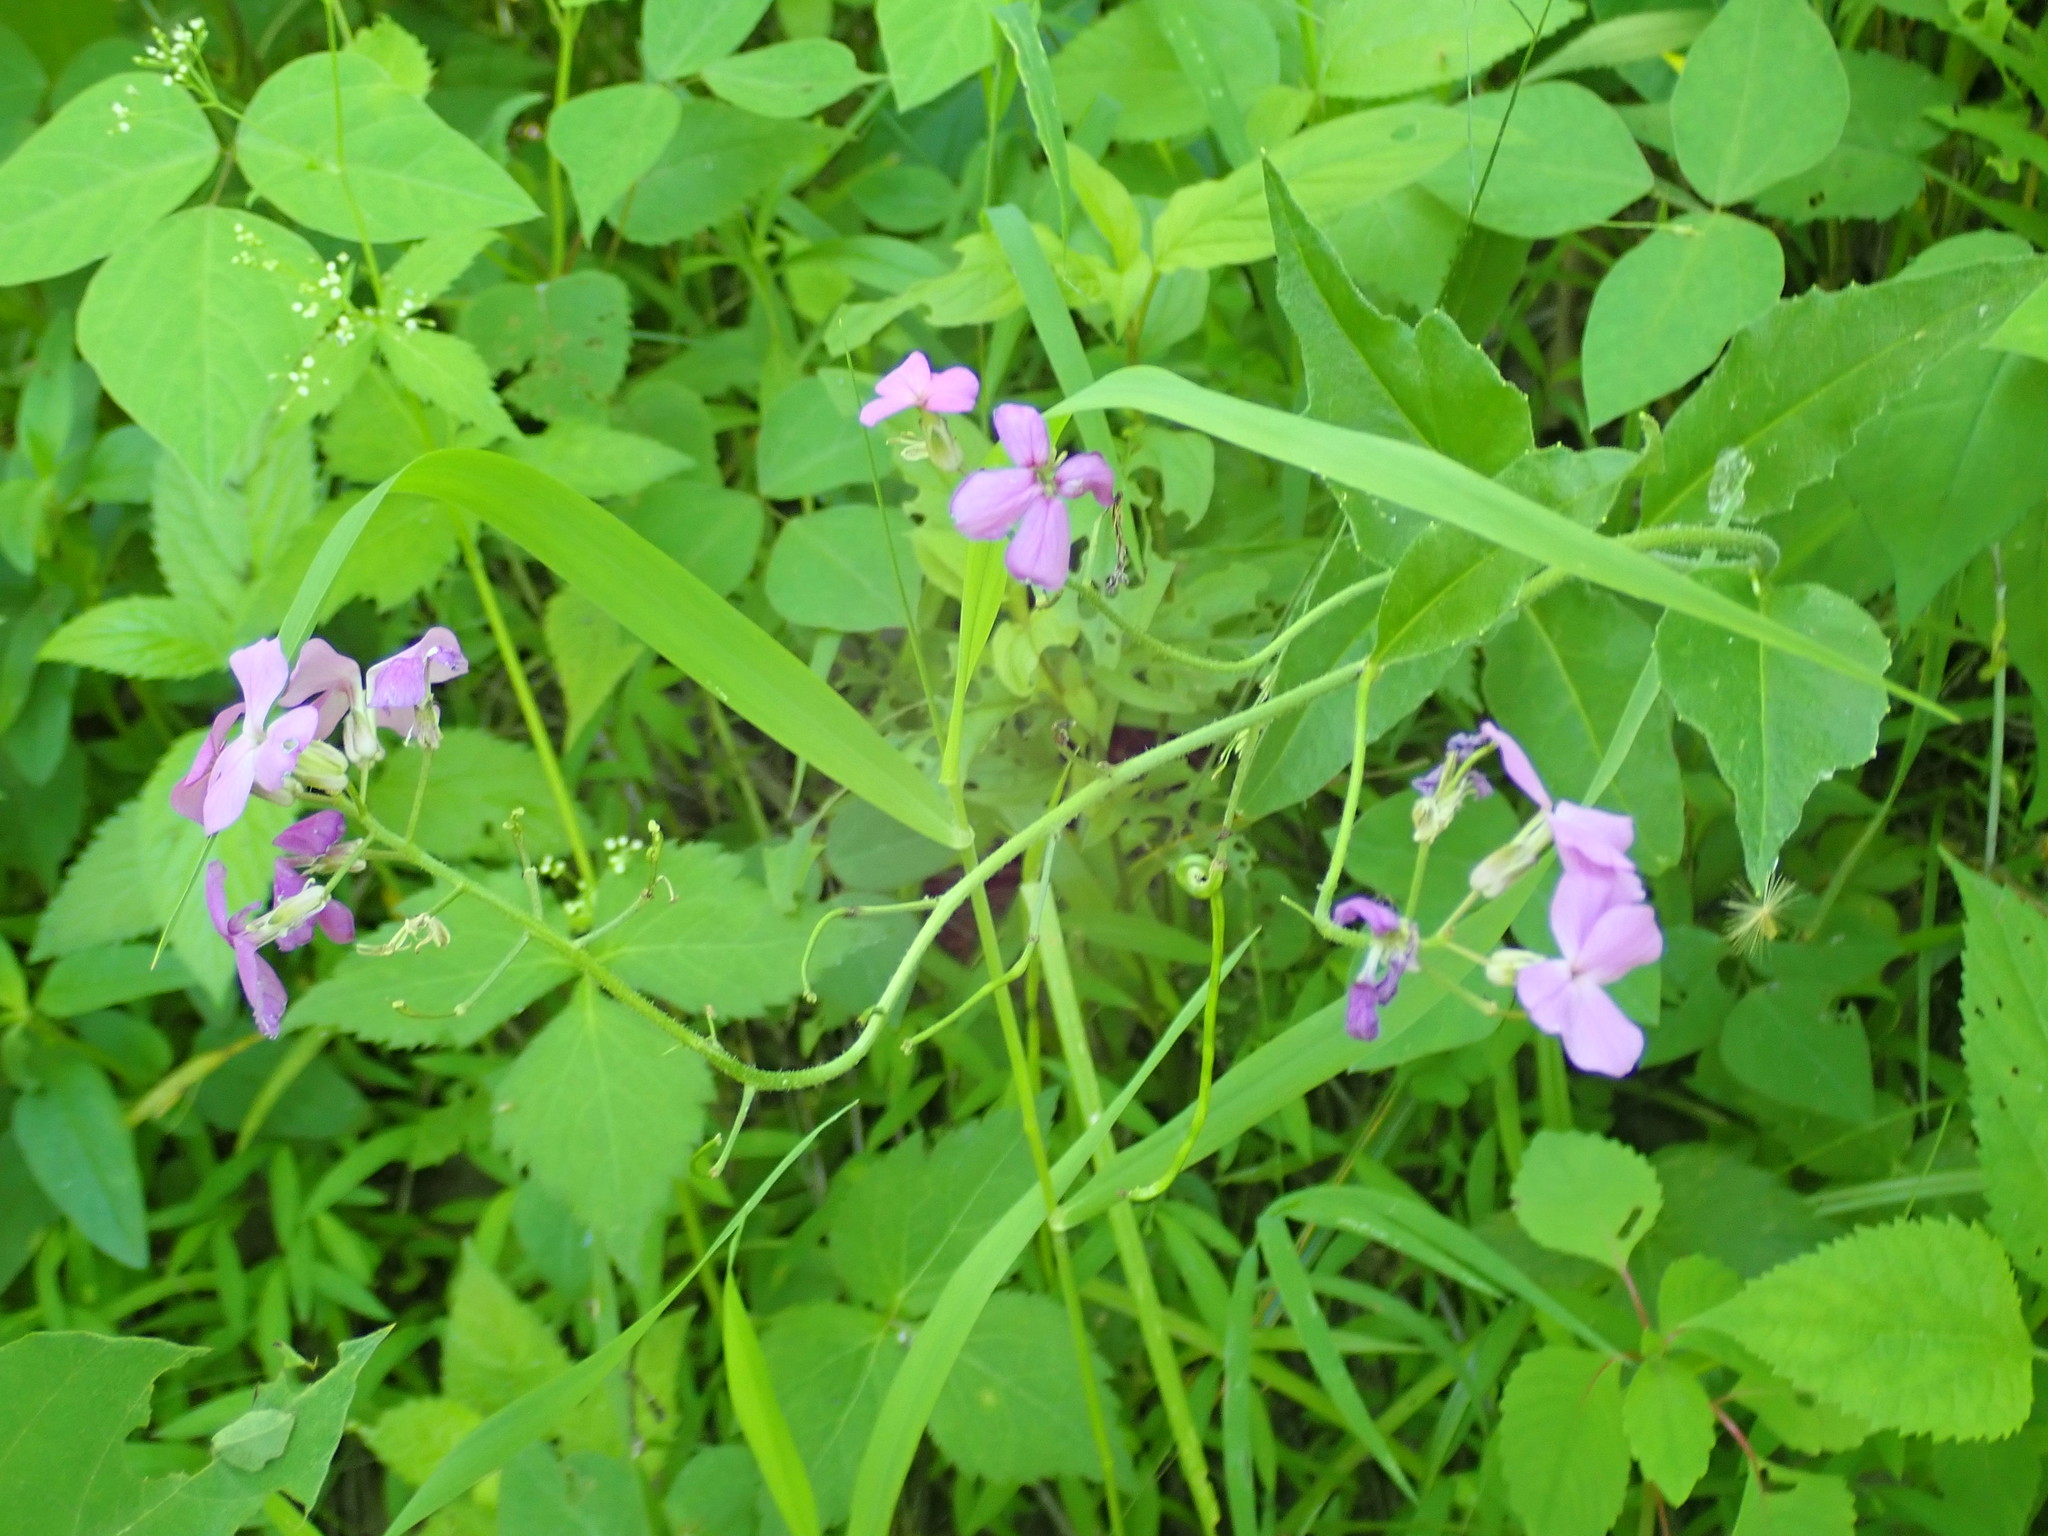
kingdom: Plantae
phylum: Tracheophyta
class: Magnoliopsida
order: Brassicales
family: Brassicaceae
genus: Hesperis
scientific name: Hesperis matronalis
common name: Dame's-violet
